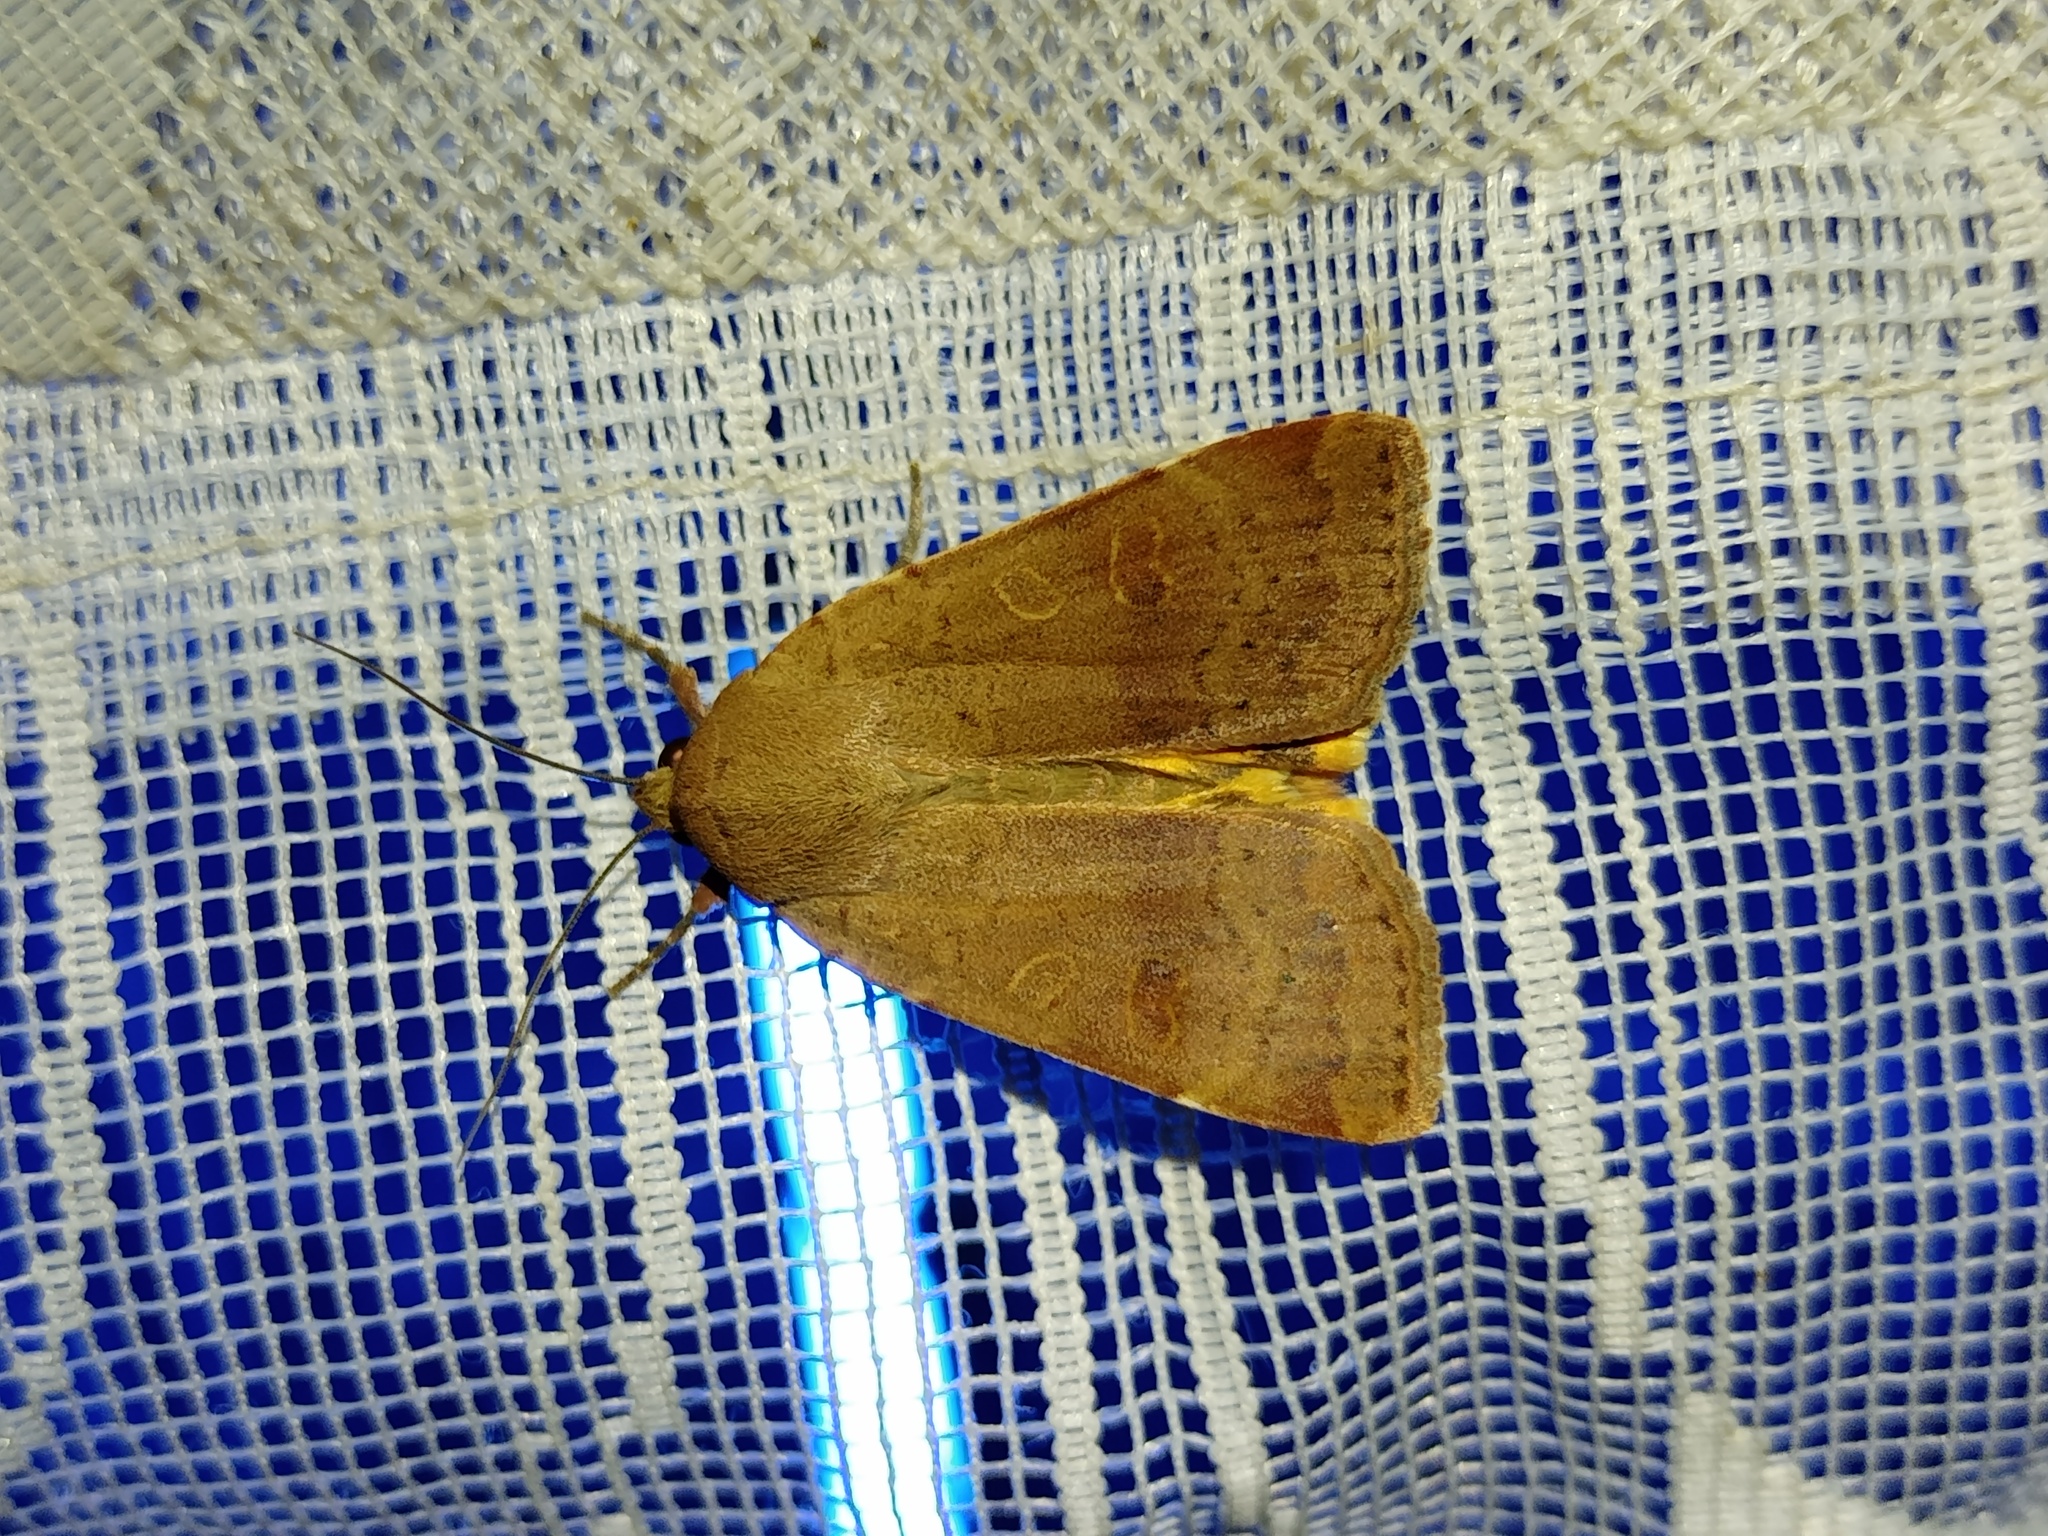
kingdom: Animalia
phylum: Arthropoda
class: Insecta
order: Lepidoptera
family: Noctuidae
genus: Noctua
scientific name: Noctua comes
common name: Lesser yellow underwing
